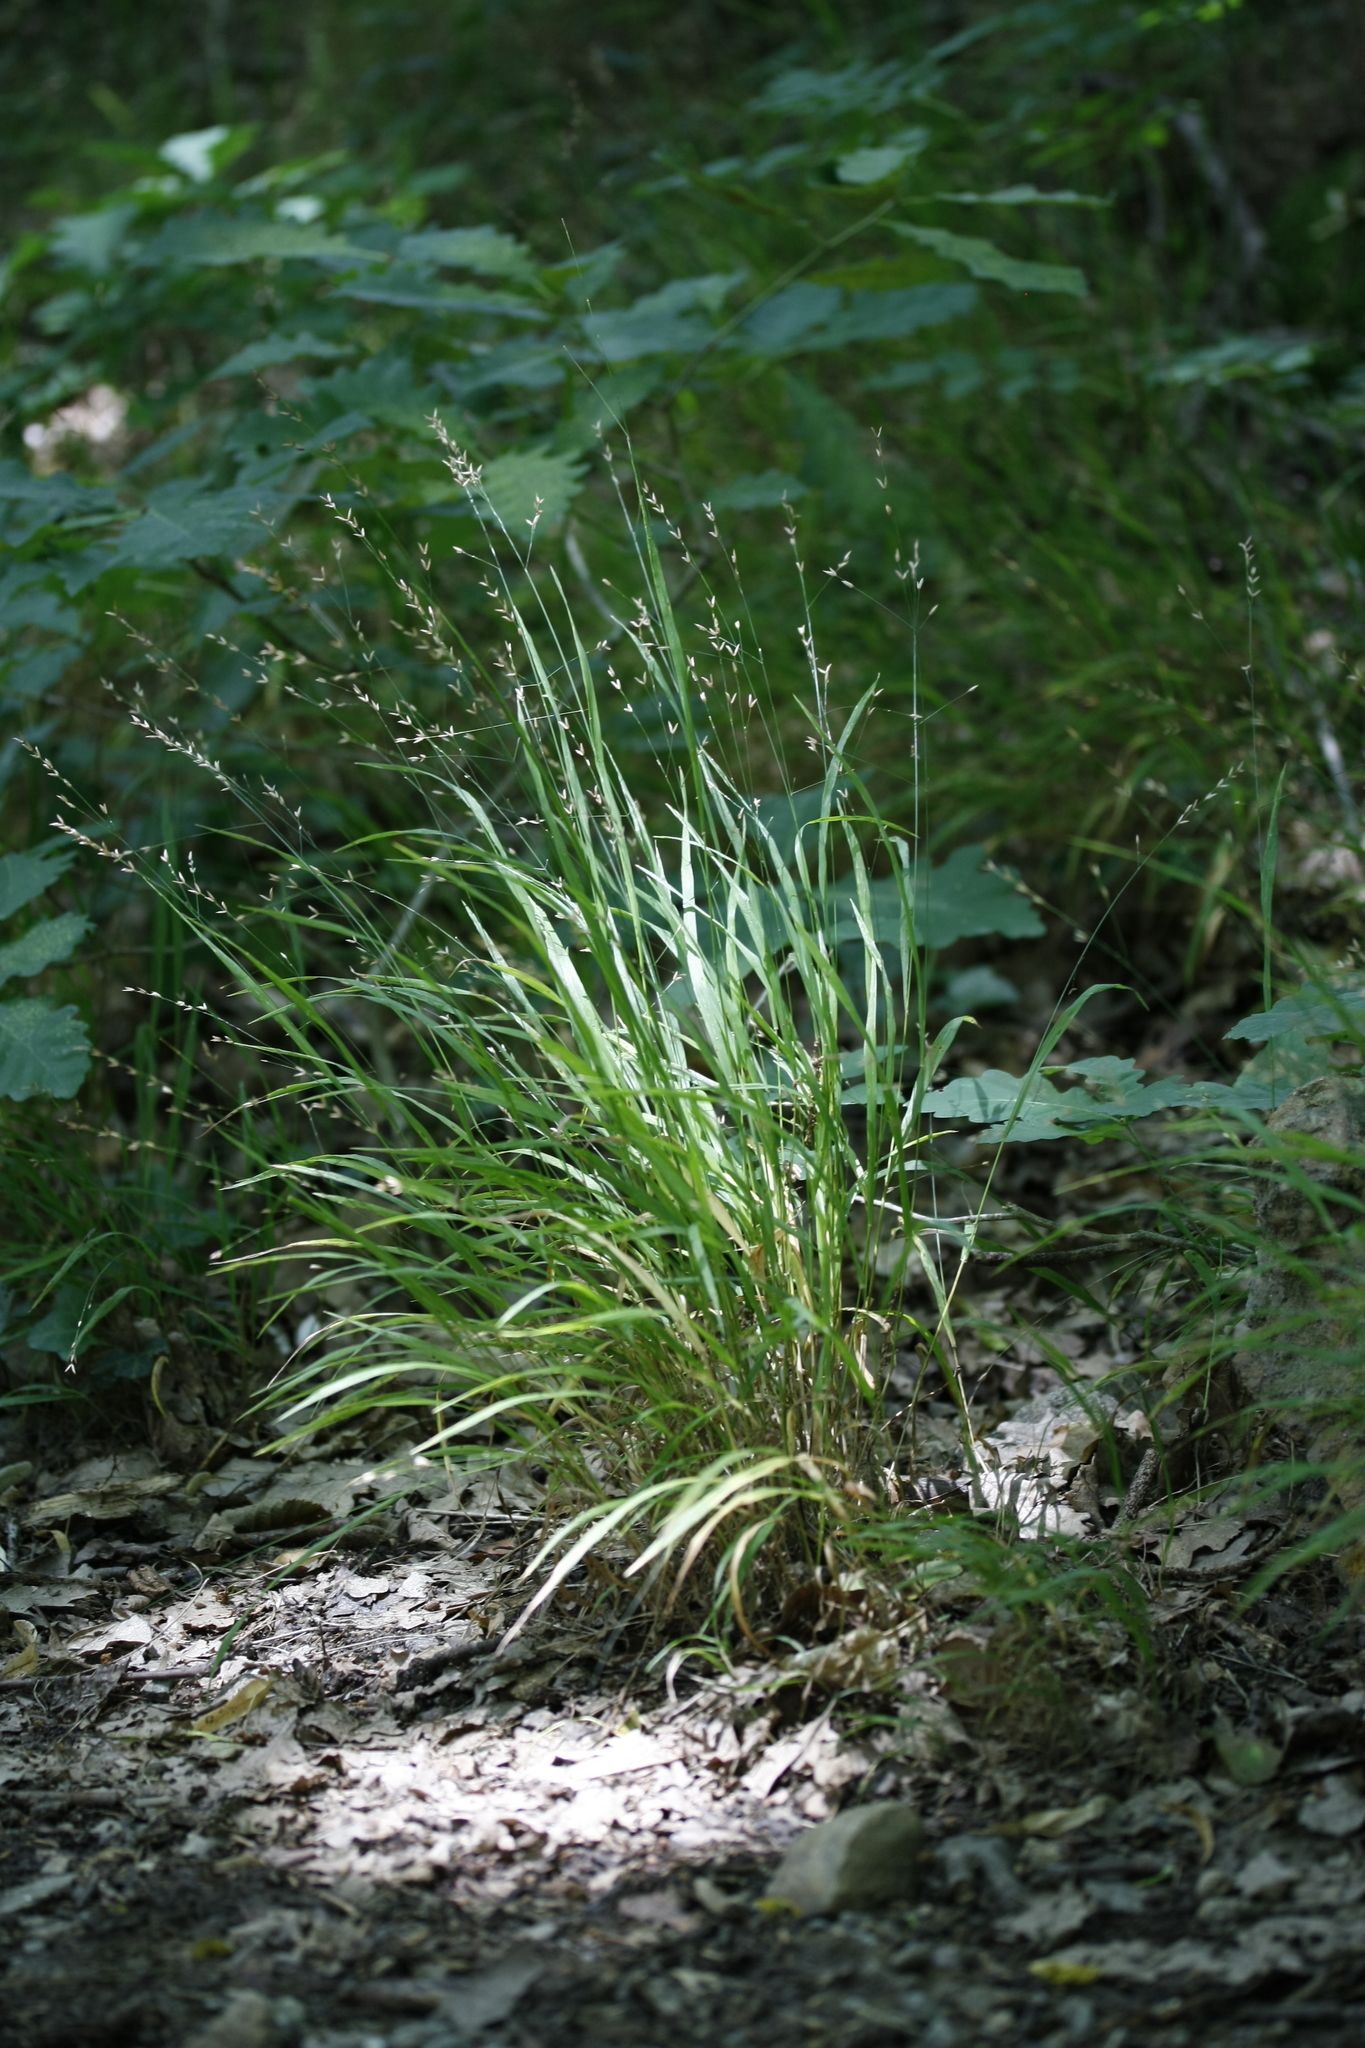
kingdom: Plantae
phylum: Tracheophyta
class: Liliopsida
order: Poales
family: Poaceae
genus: Melica
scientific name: Melica uniflora
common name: Wood melick
